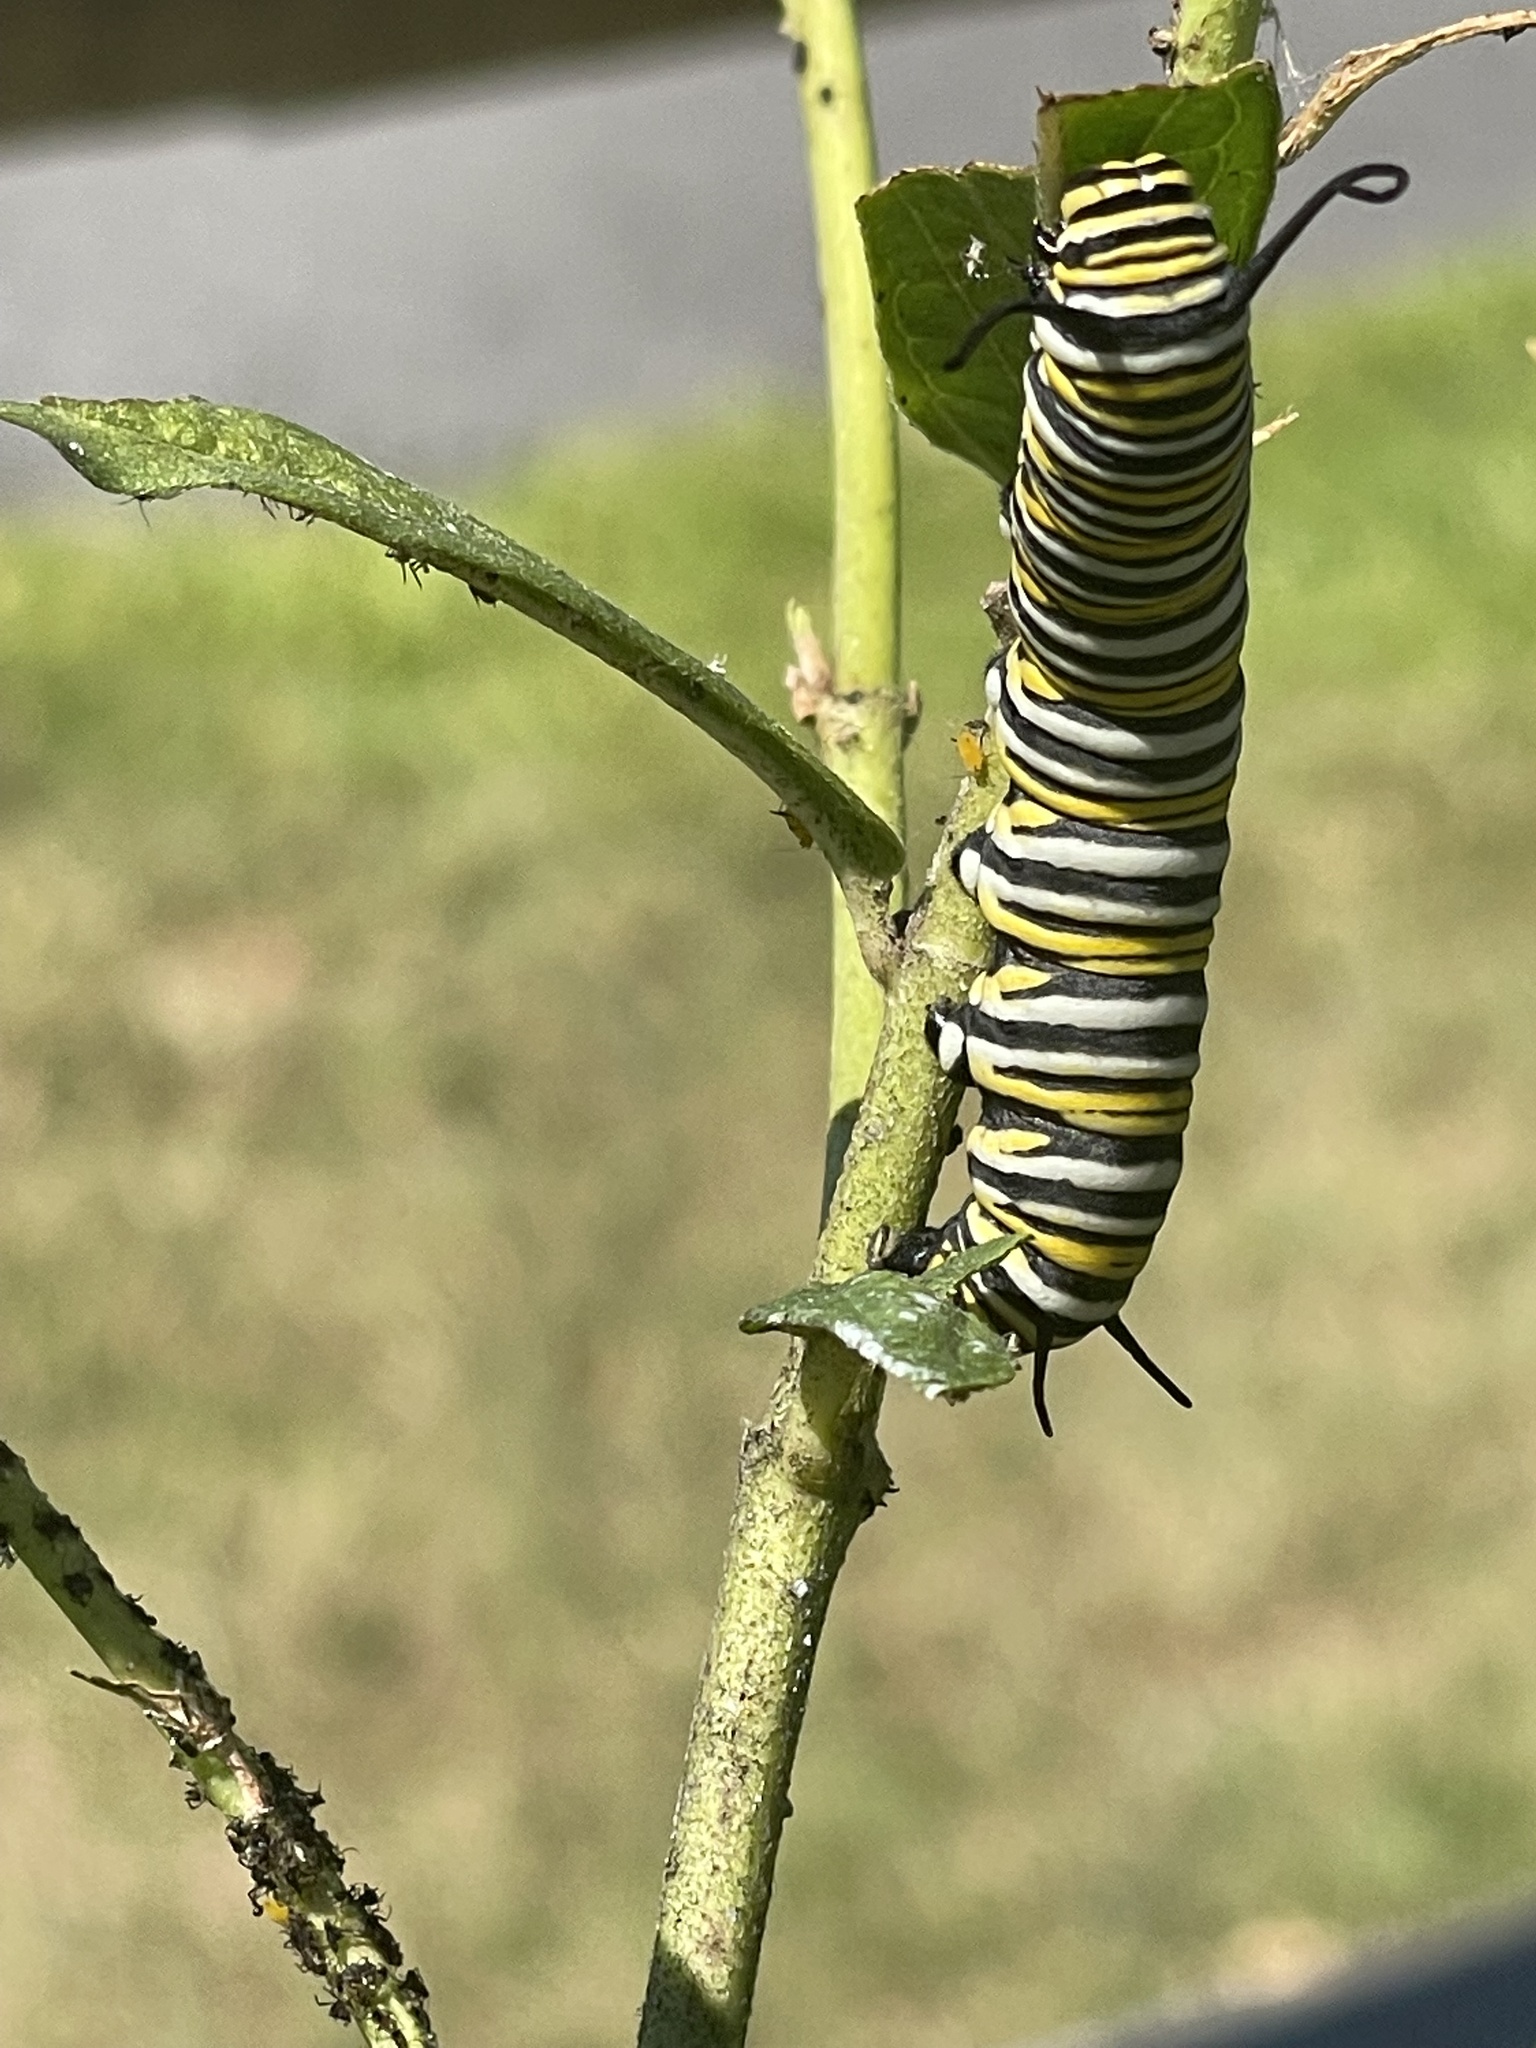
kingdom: Animalia
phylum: Arthropoda
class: Insecta
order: Lepidoptera
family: Nymphalidae
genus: Danaus
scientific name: Danaus plexippus
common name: Monarch
